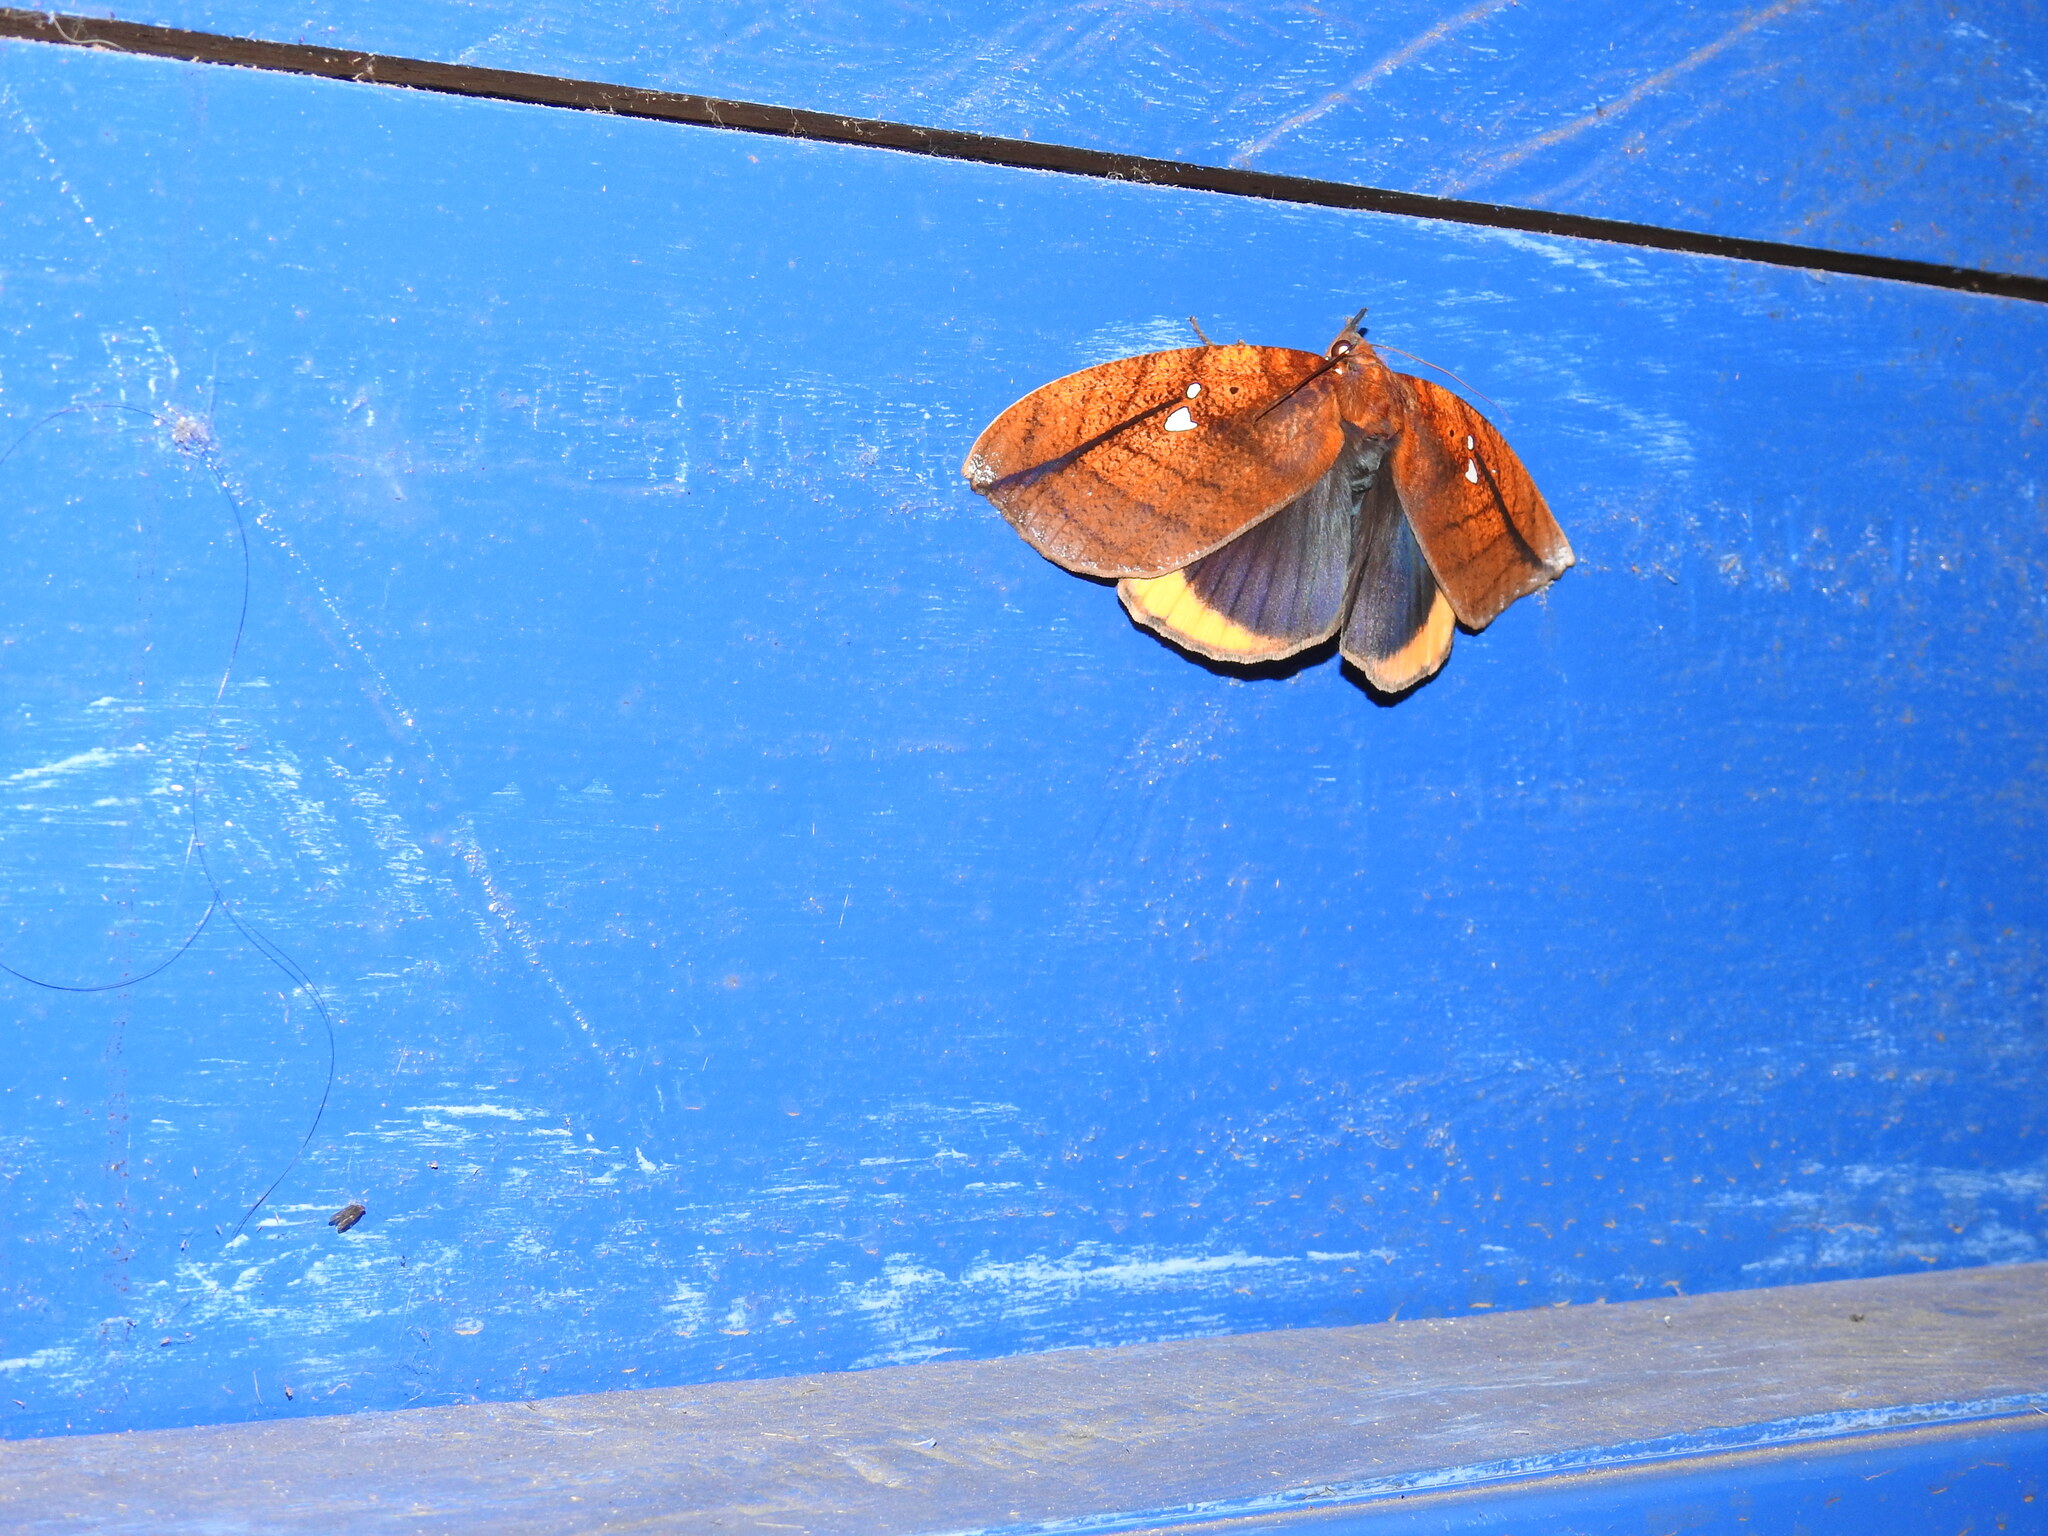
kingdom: Animalia
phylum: Arthropoda
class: Insecta
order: Lepidoptera
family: Erebidae
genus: Gloriana
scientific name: Gloriana ornata
